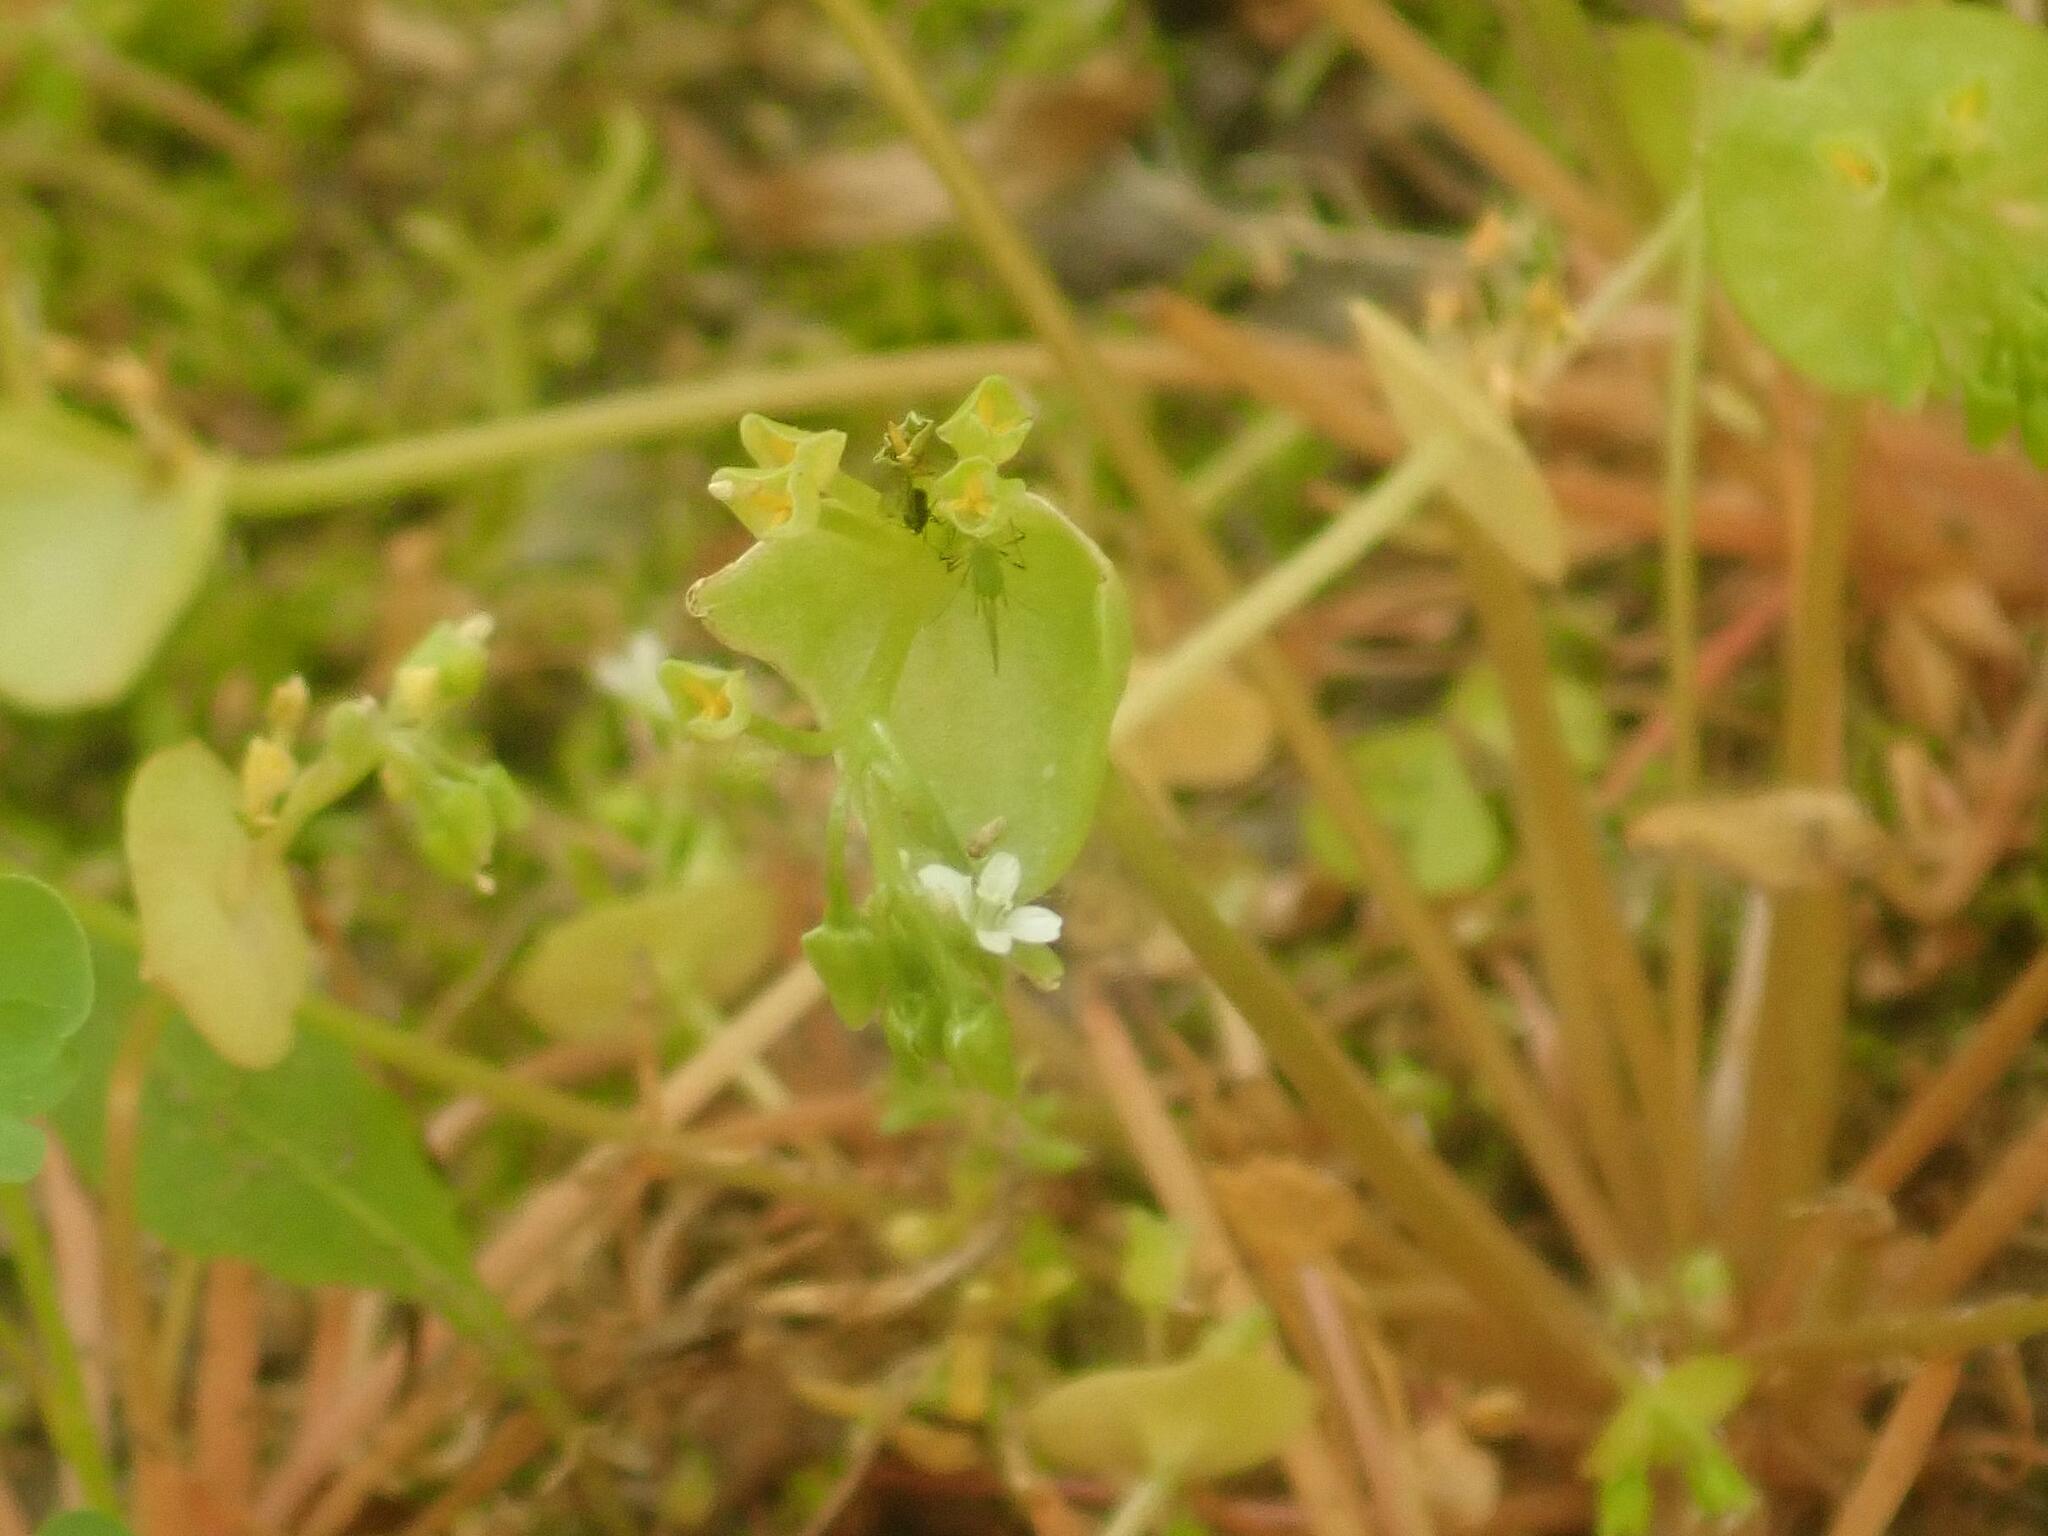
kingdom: Plantae
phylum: Tracheophyta
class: Magnoliopsida
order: Caryophyllales
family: Montiaceae
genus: Claytonia
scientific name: Claytonia perfoliata
